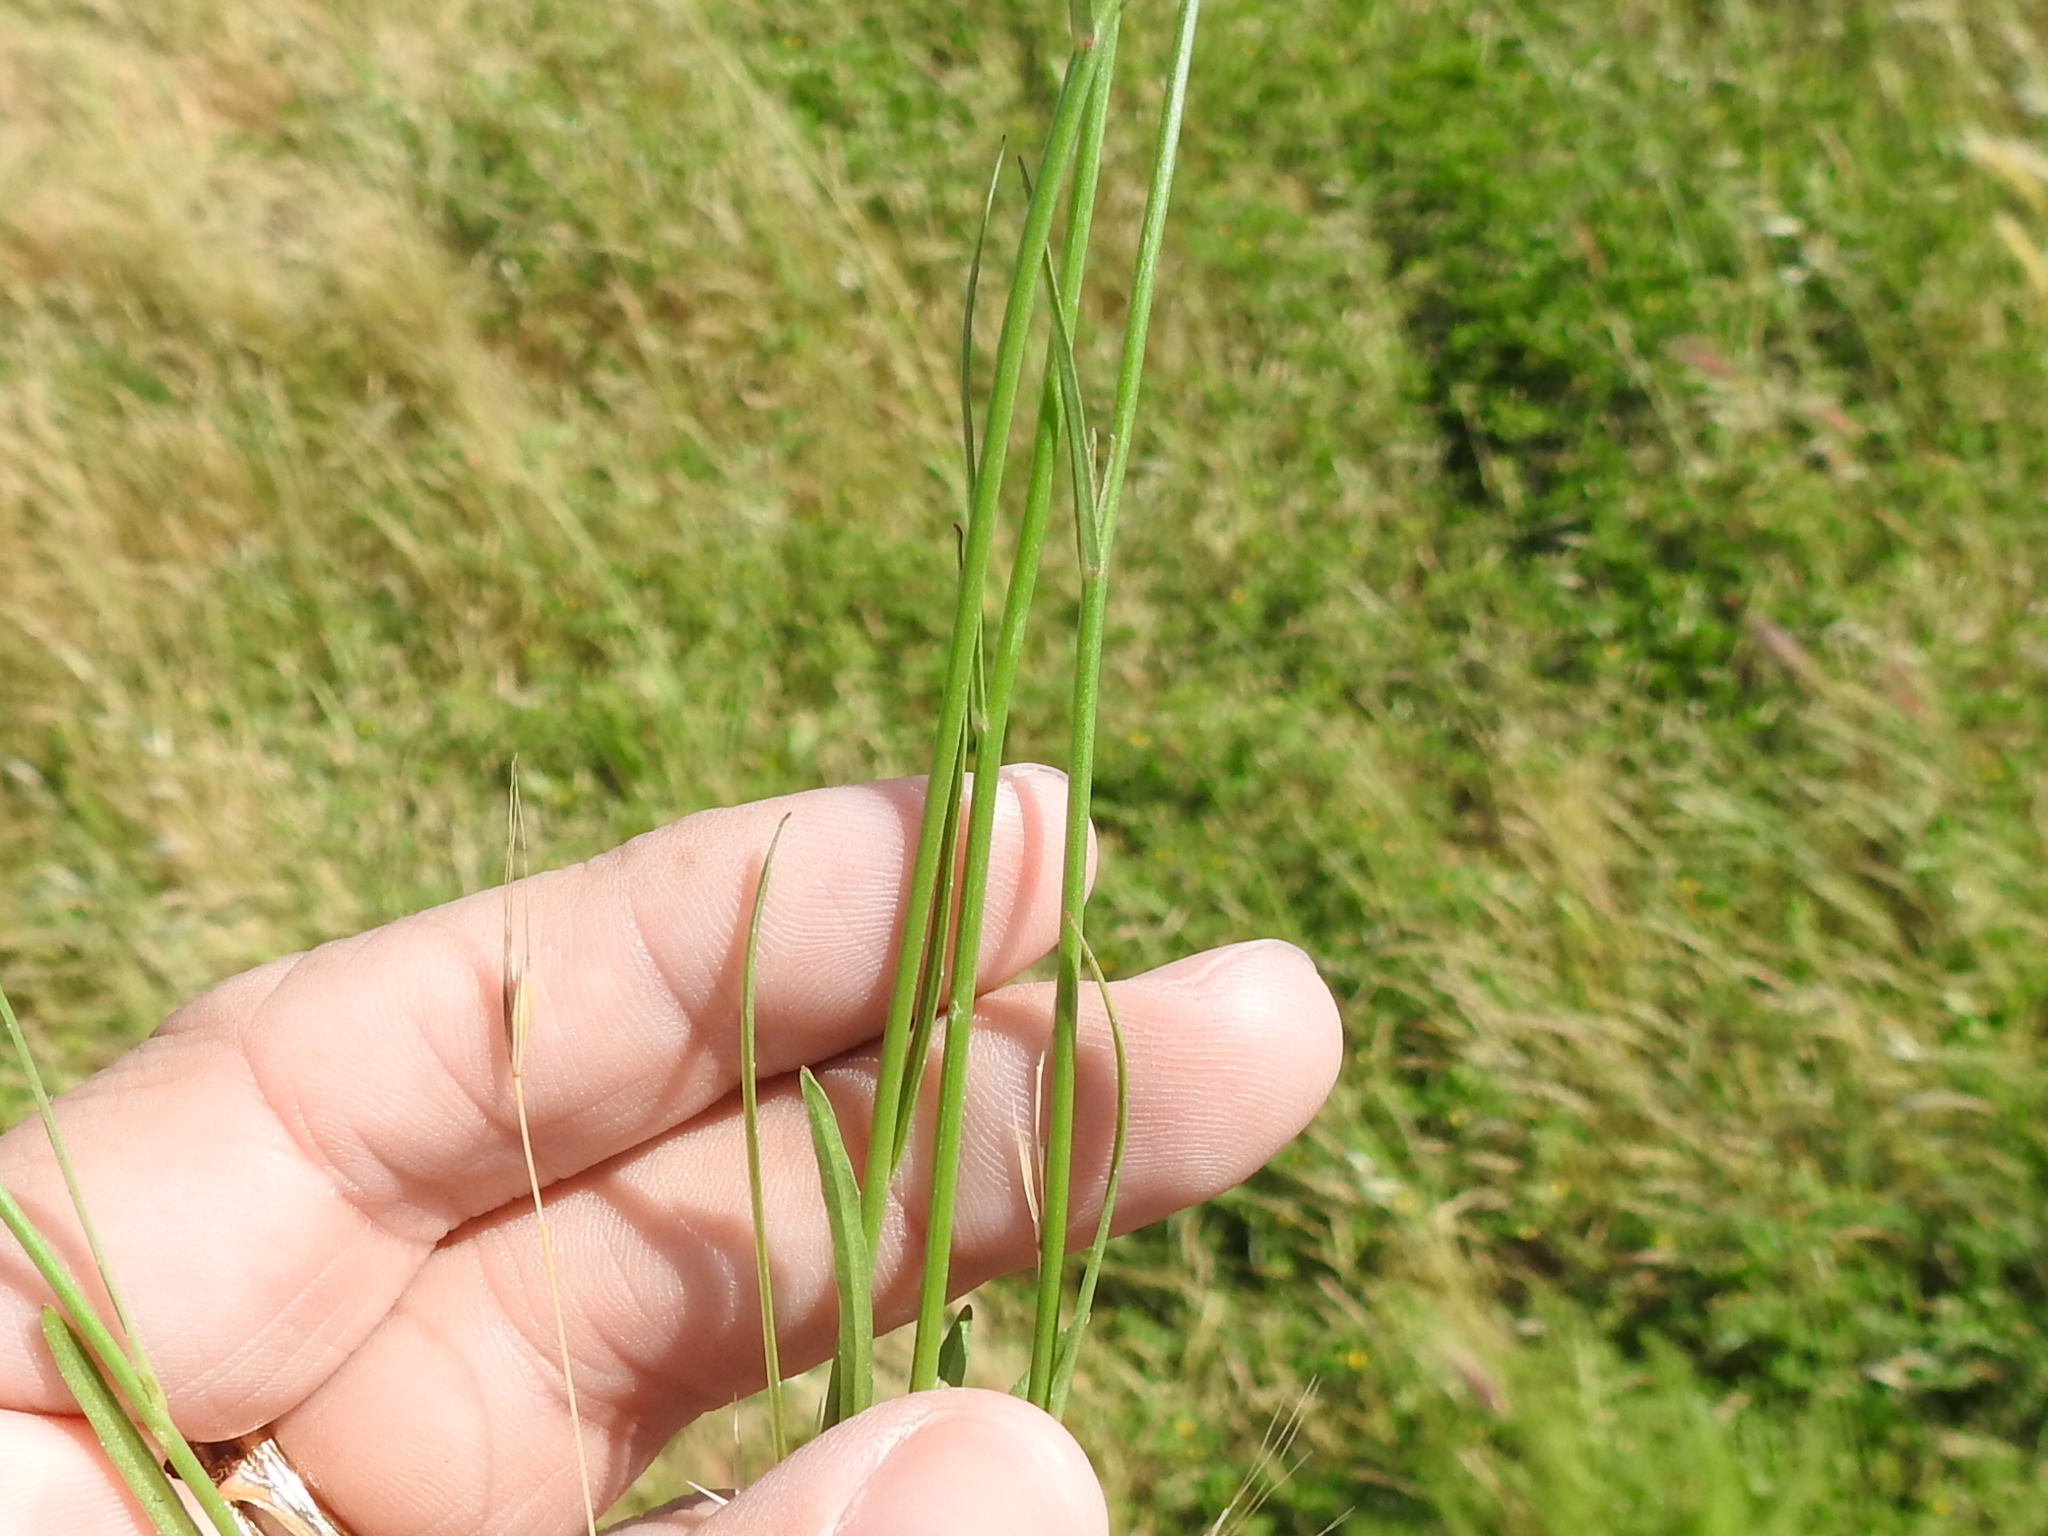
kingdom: Plantae
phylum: Tracheophyta
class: Magnoliopsida
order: Asterales
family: Campanulaceae
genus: Wahlenbergia
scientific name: Wahlenbergia marginata
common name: Southern rockbell
